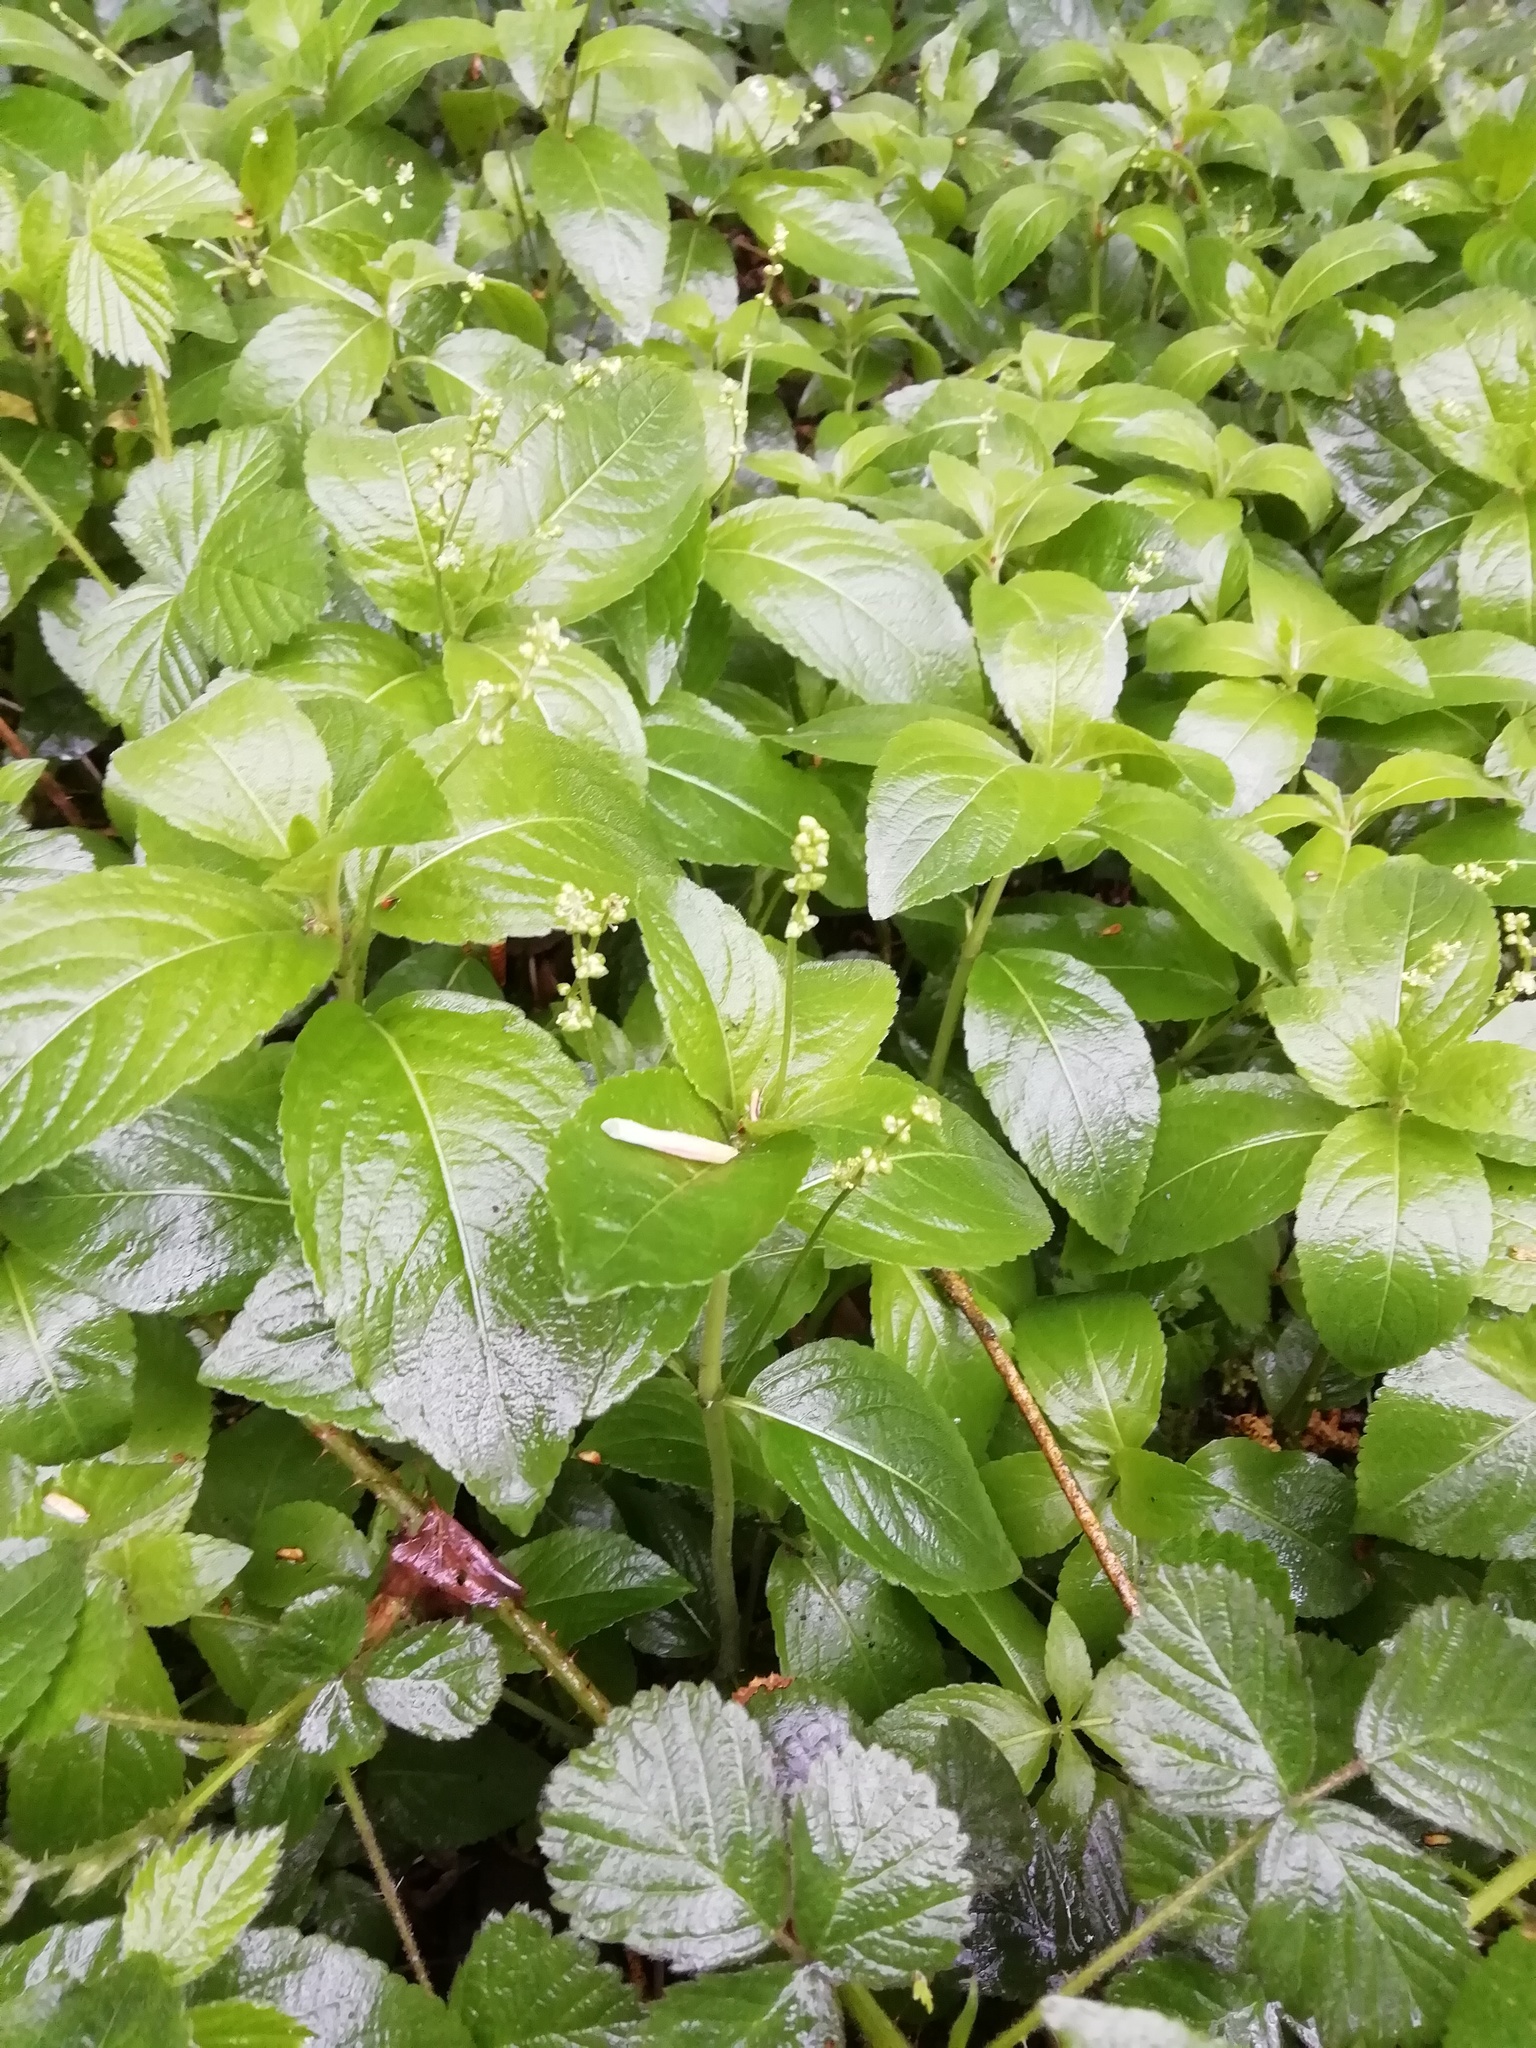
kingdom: Plantae
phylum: Tracheophyta
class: Magnoliopsida
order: Malpighiales
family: Euphorbiaceae
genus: Mercurialis
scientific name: Mercurialis perennis
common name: Dog mercury
